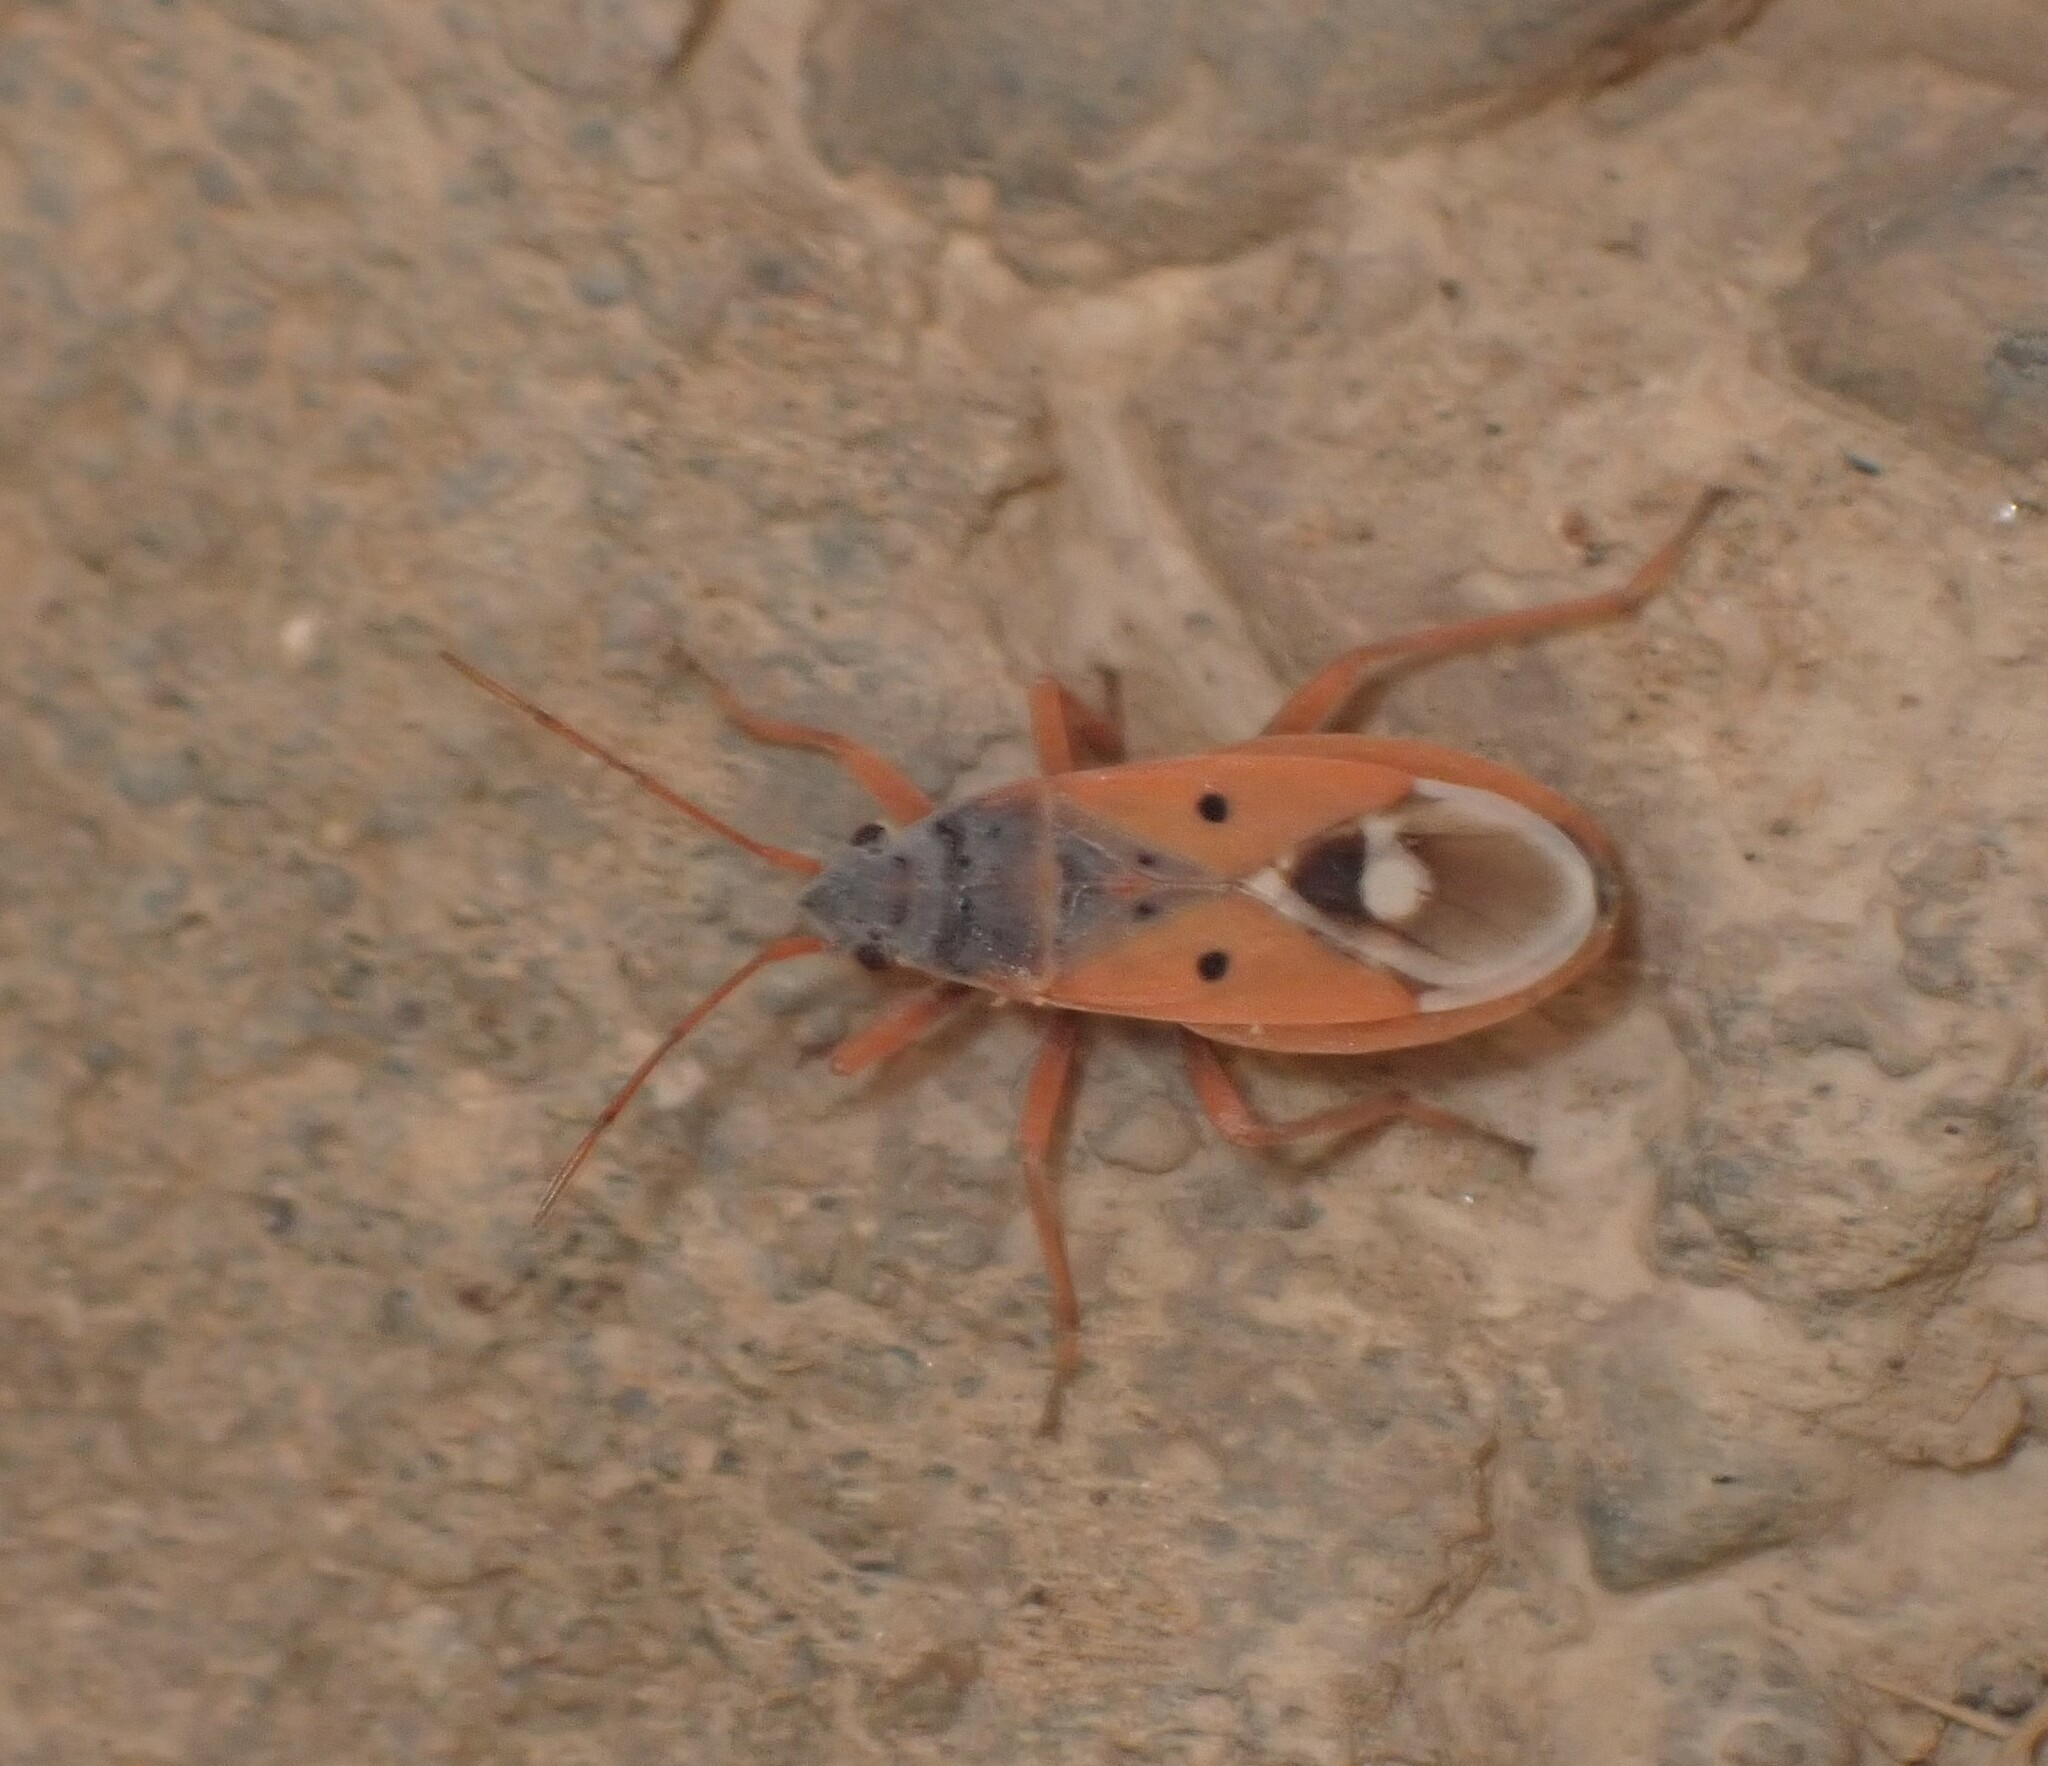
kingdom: Animalia
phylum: Arthropoda
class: Insecta
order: Hemiptera
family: Lygaeidae
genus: Cosmopleurus
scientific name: Cosmopleurus fulvipes
